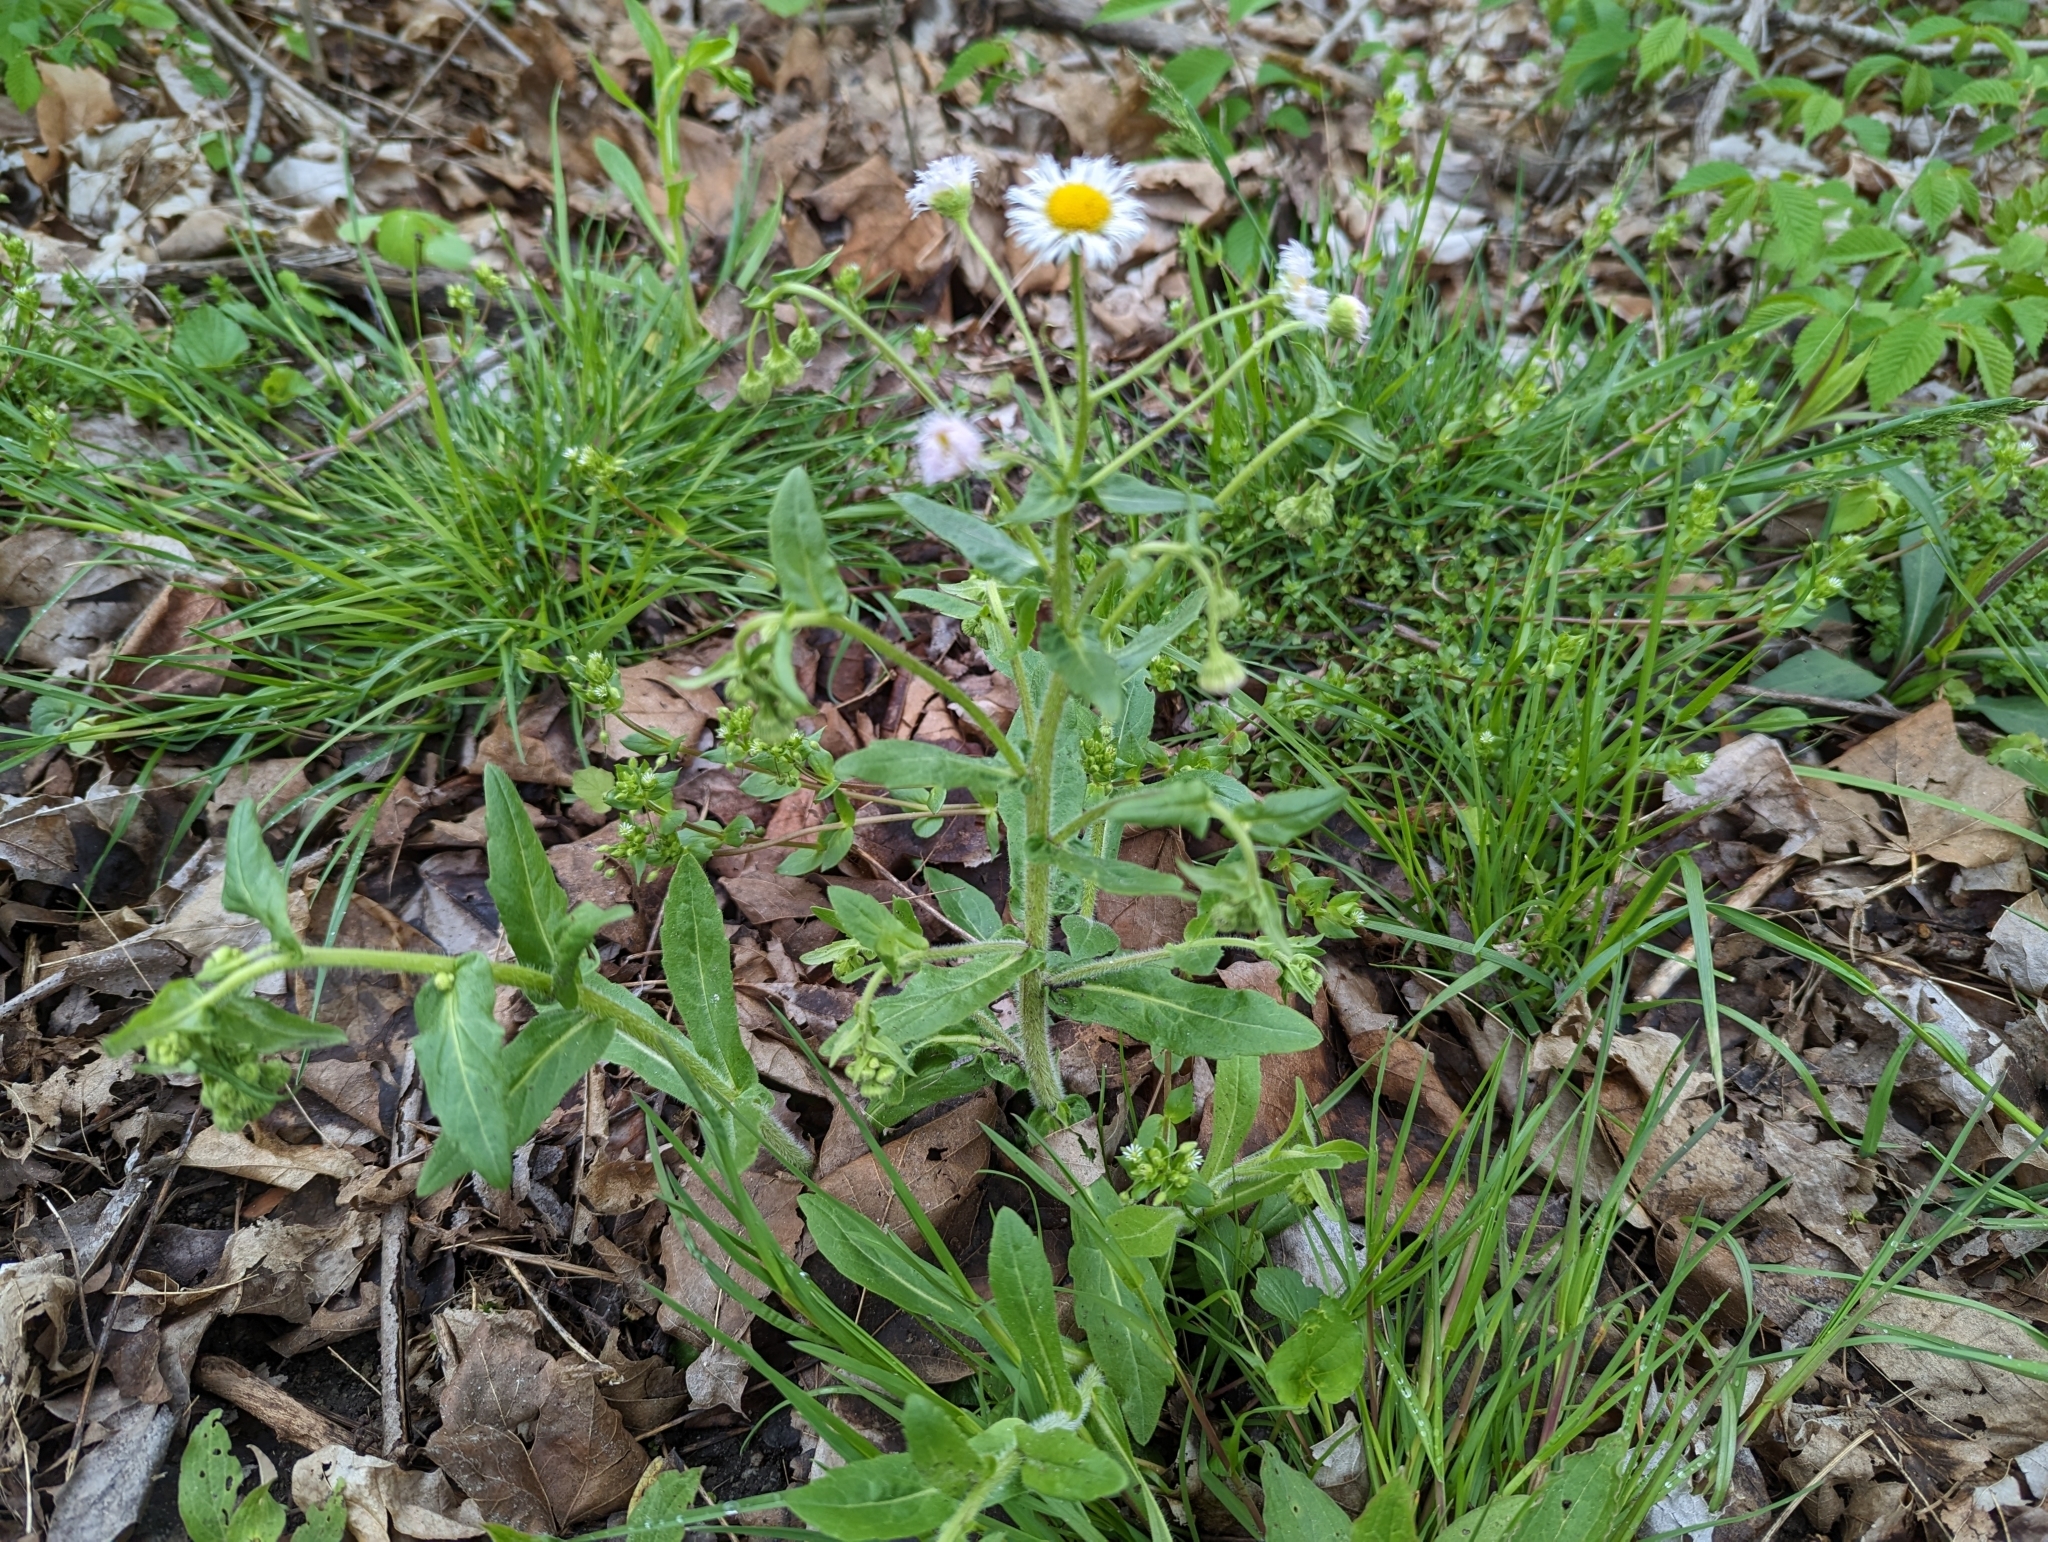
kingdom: Plantae
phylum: Tracheophyta
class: Magnoliopsida
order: Asterales
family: Asteraceae
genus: Erigeron
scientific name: Erigeron philadelphicus
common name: Robin's-plantain
